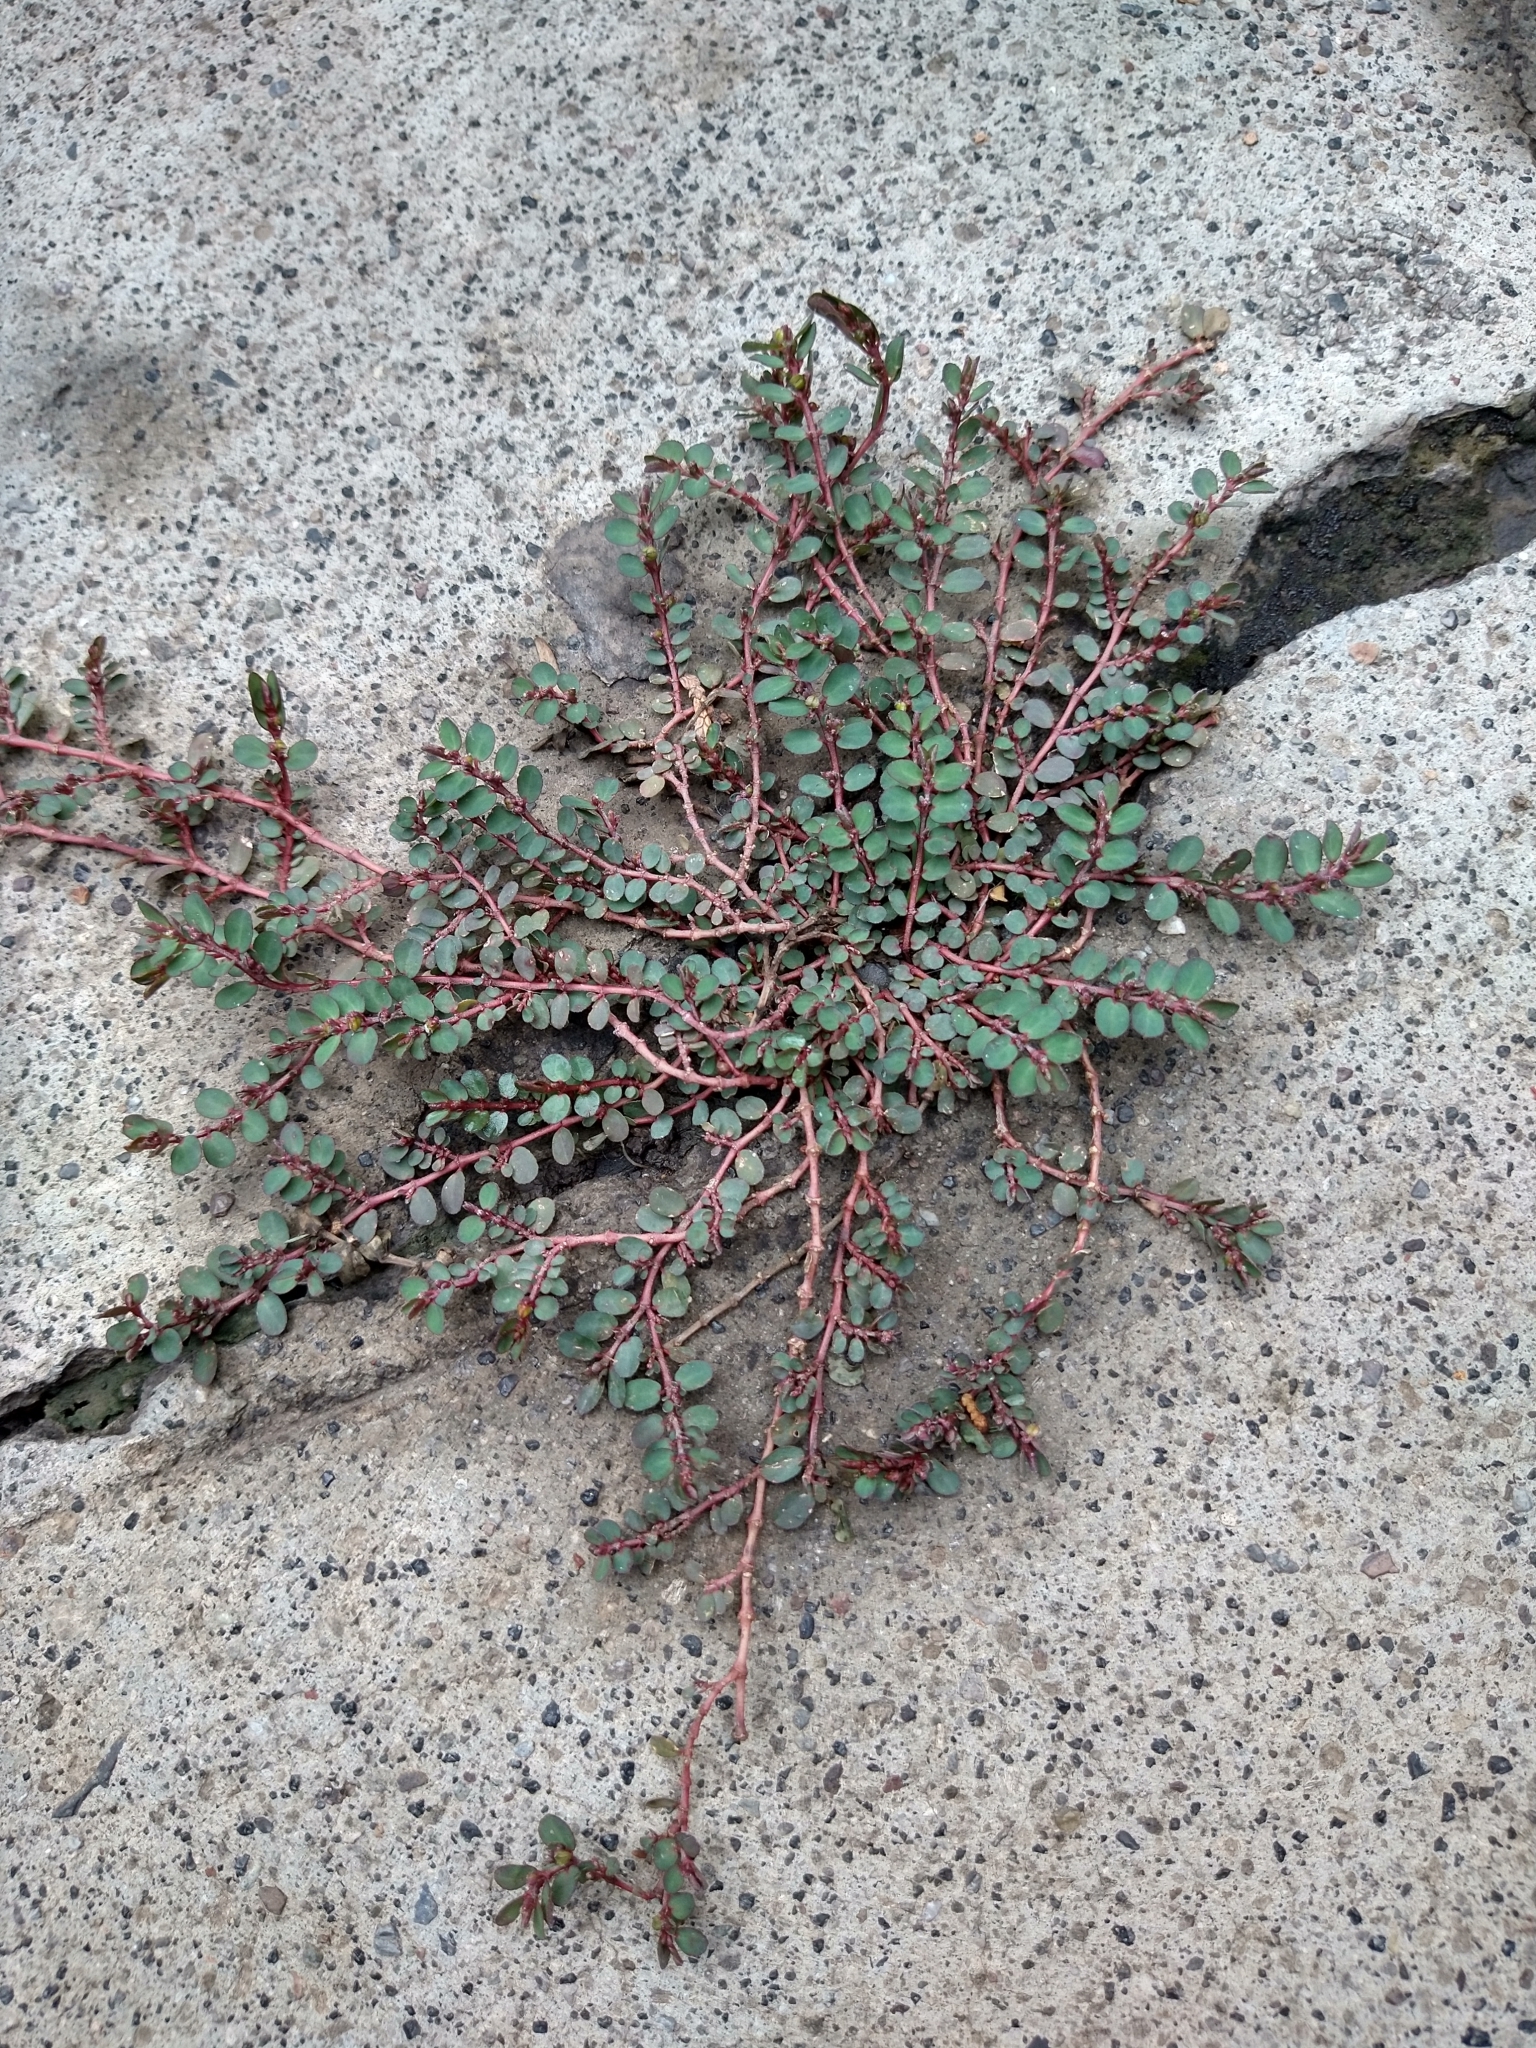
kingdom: Plantae
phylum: Tracheophyta
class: Magnoliopsida
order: Malpighiales
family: Euphorbiaceae
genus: Euphorbia
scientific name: Euphorbia prostrata
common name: Prostrate sandmat
